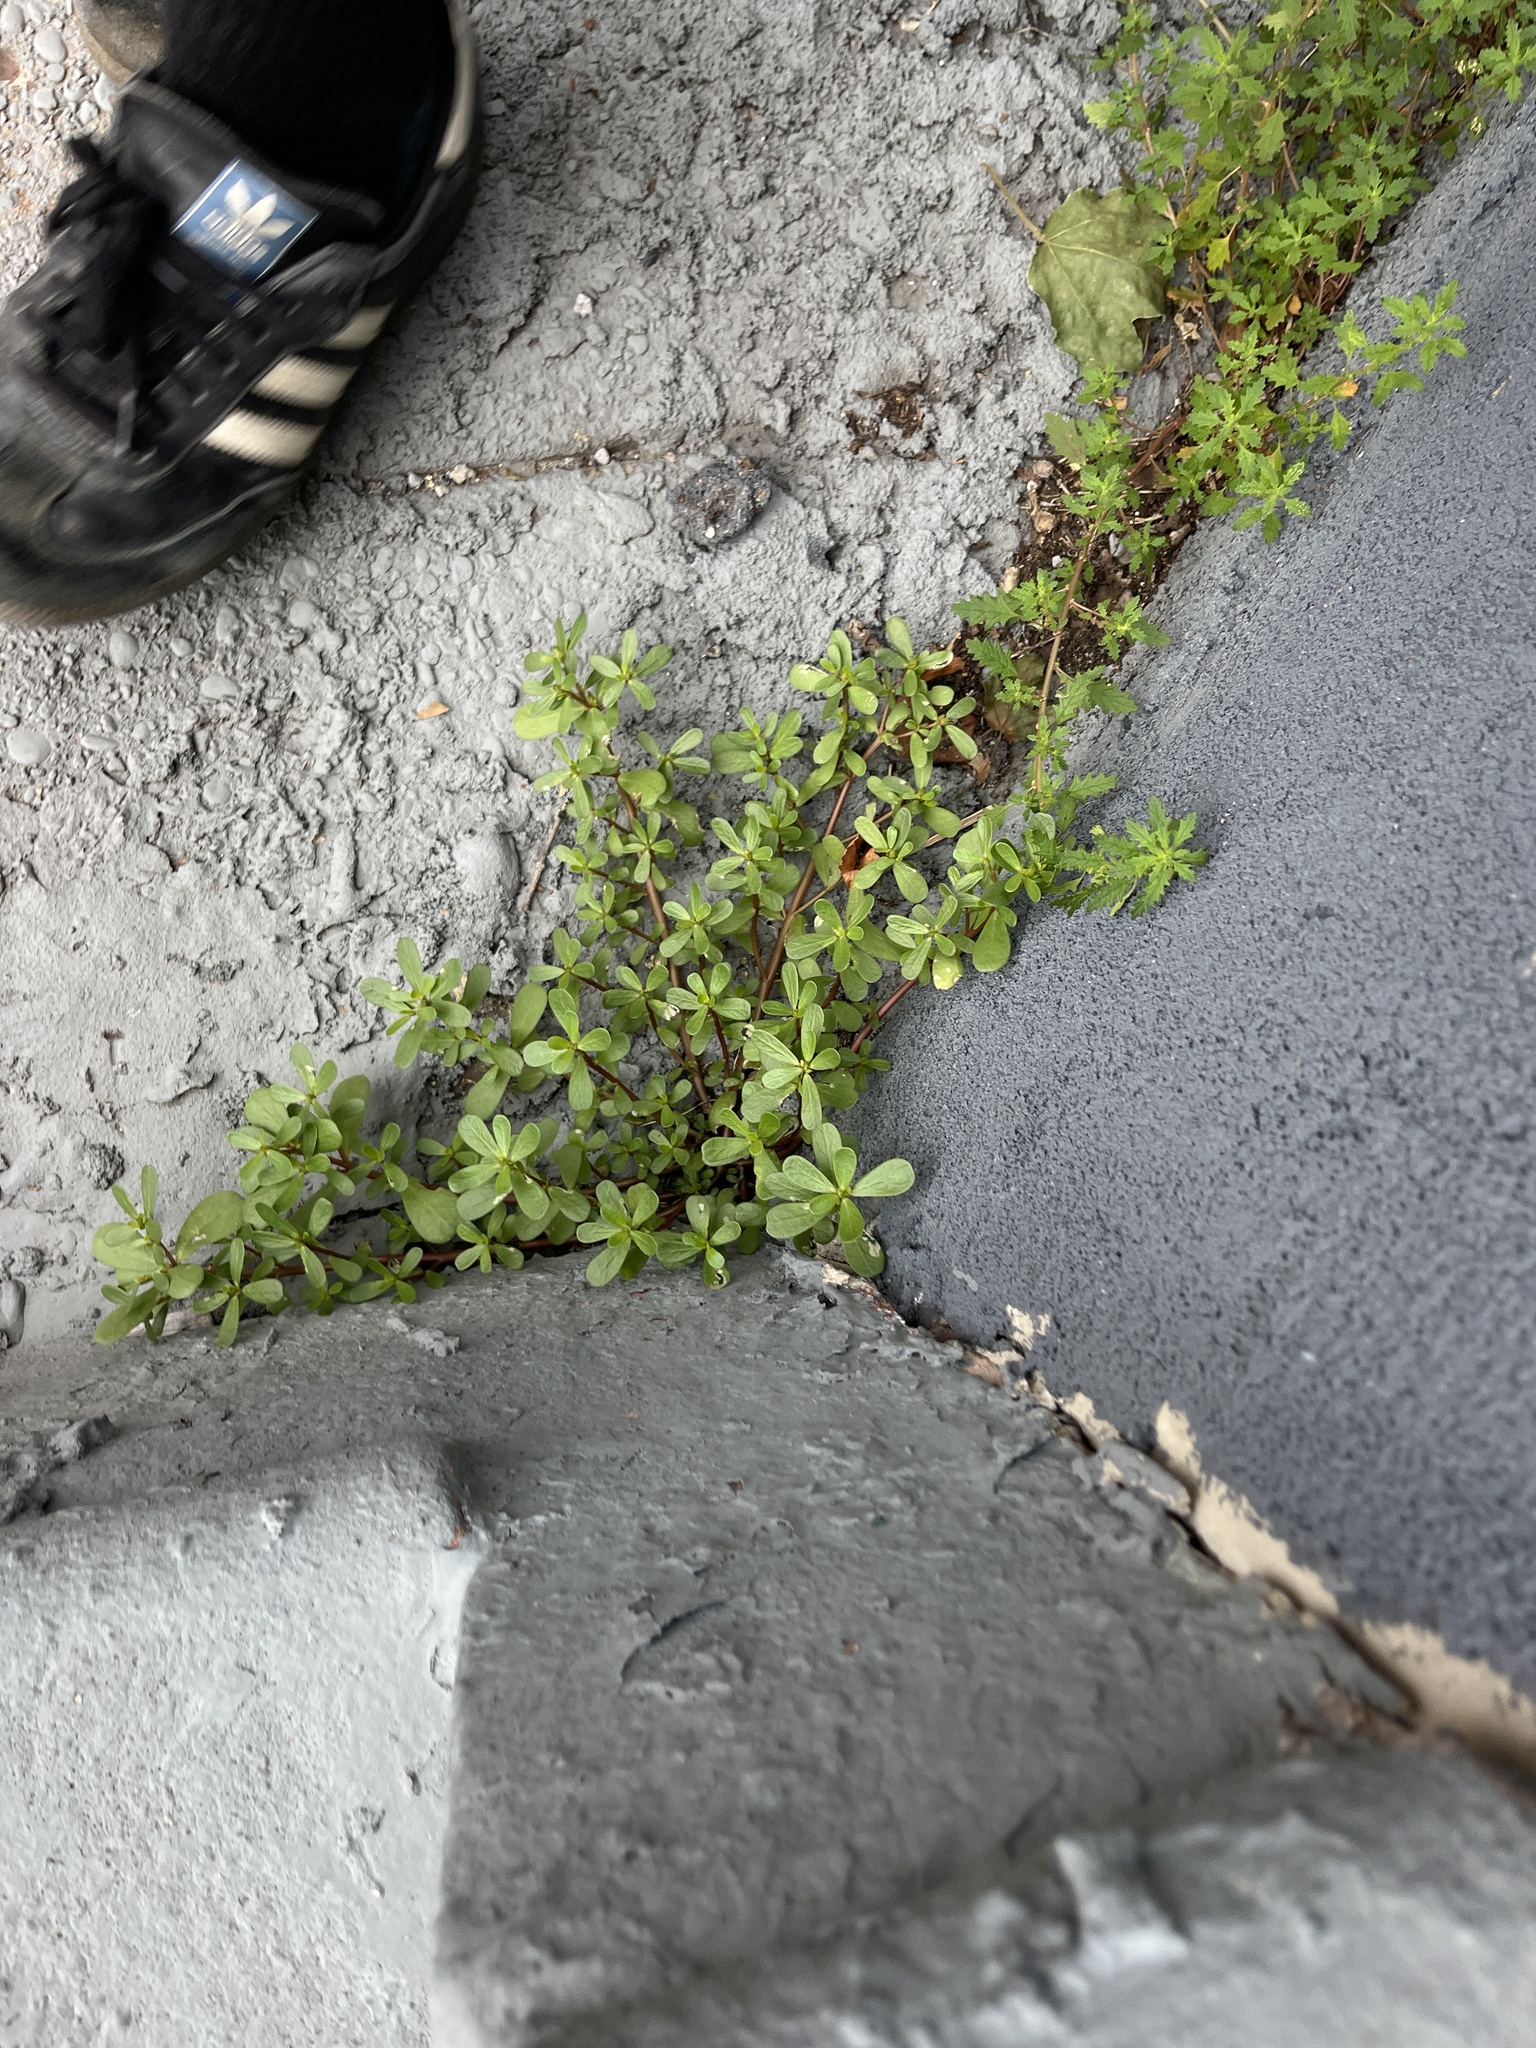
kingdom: Plantae
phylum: Tracheophyta
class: Magnoliopsida
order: Caryophyllales
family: Portulacaceae
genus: Portulaca
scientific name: Portulaca oleracea
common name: Common purslane
